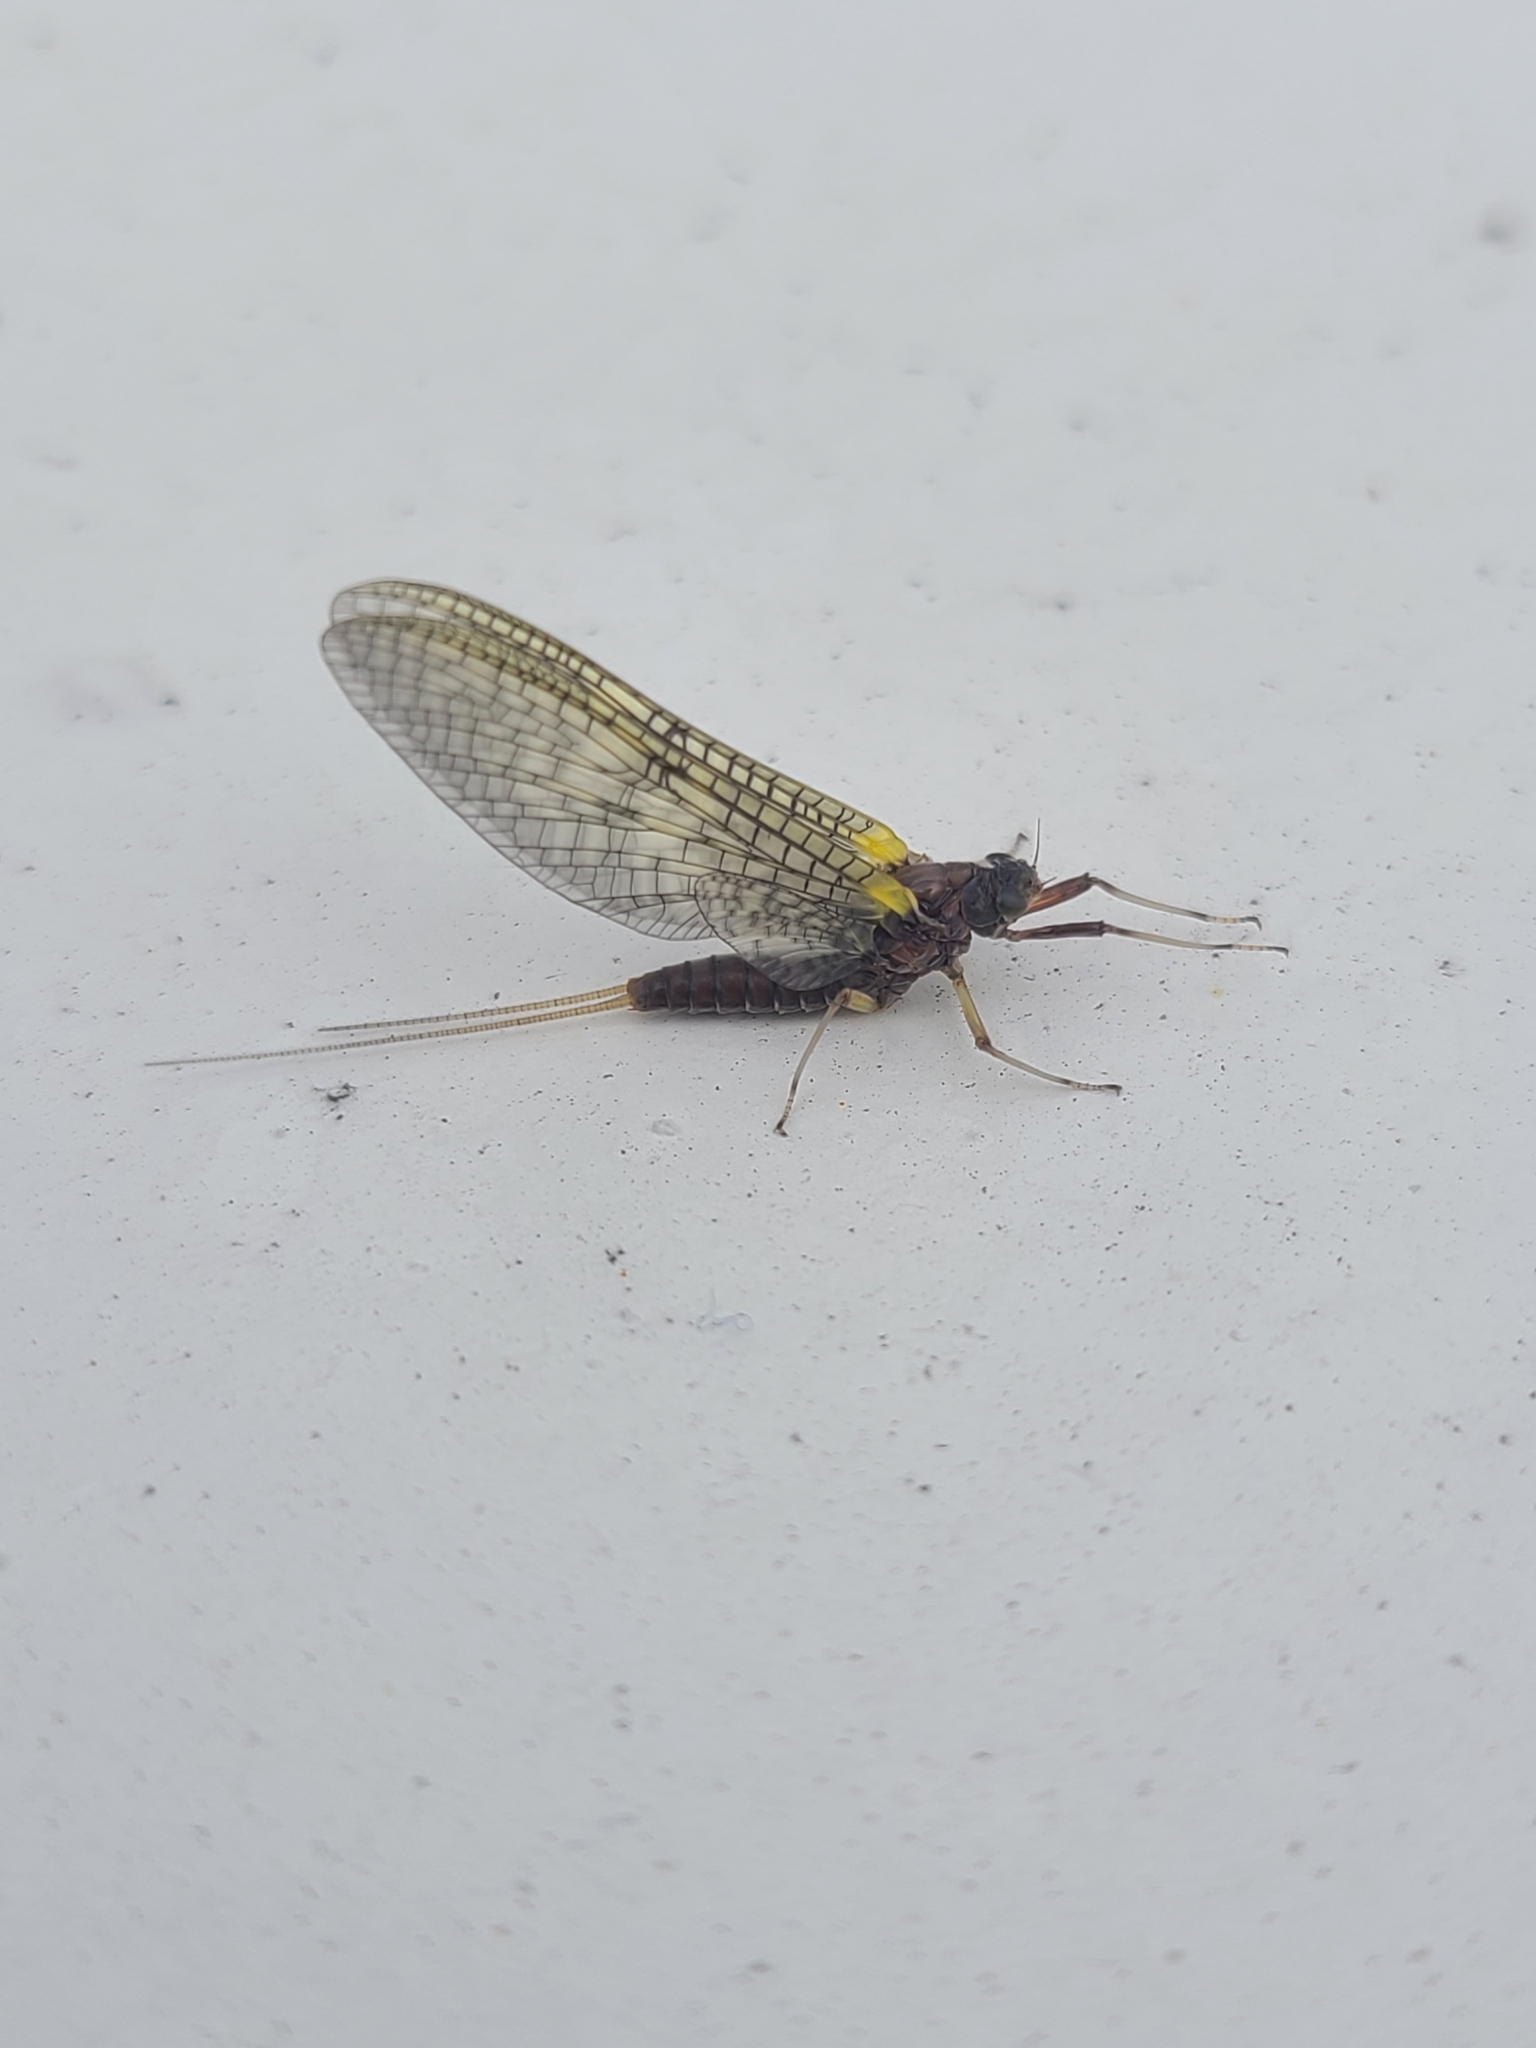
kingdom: Animalia
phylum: Arthropoda
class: Insecta
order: Ephemeroptera
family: Coloburiscidae
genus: Coloburiscus
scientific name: Coloburiscus humeralis
